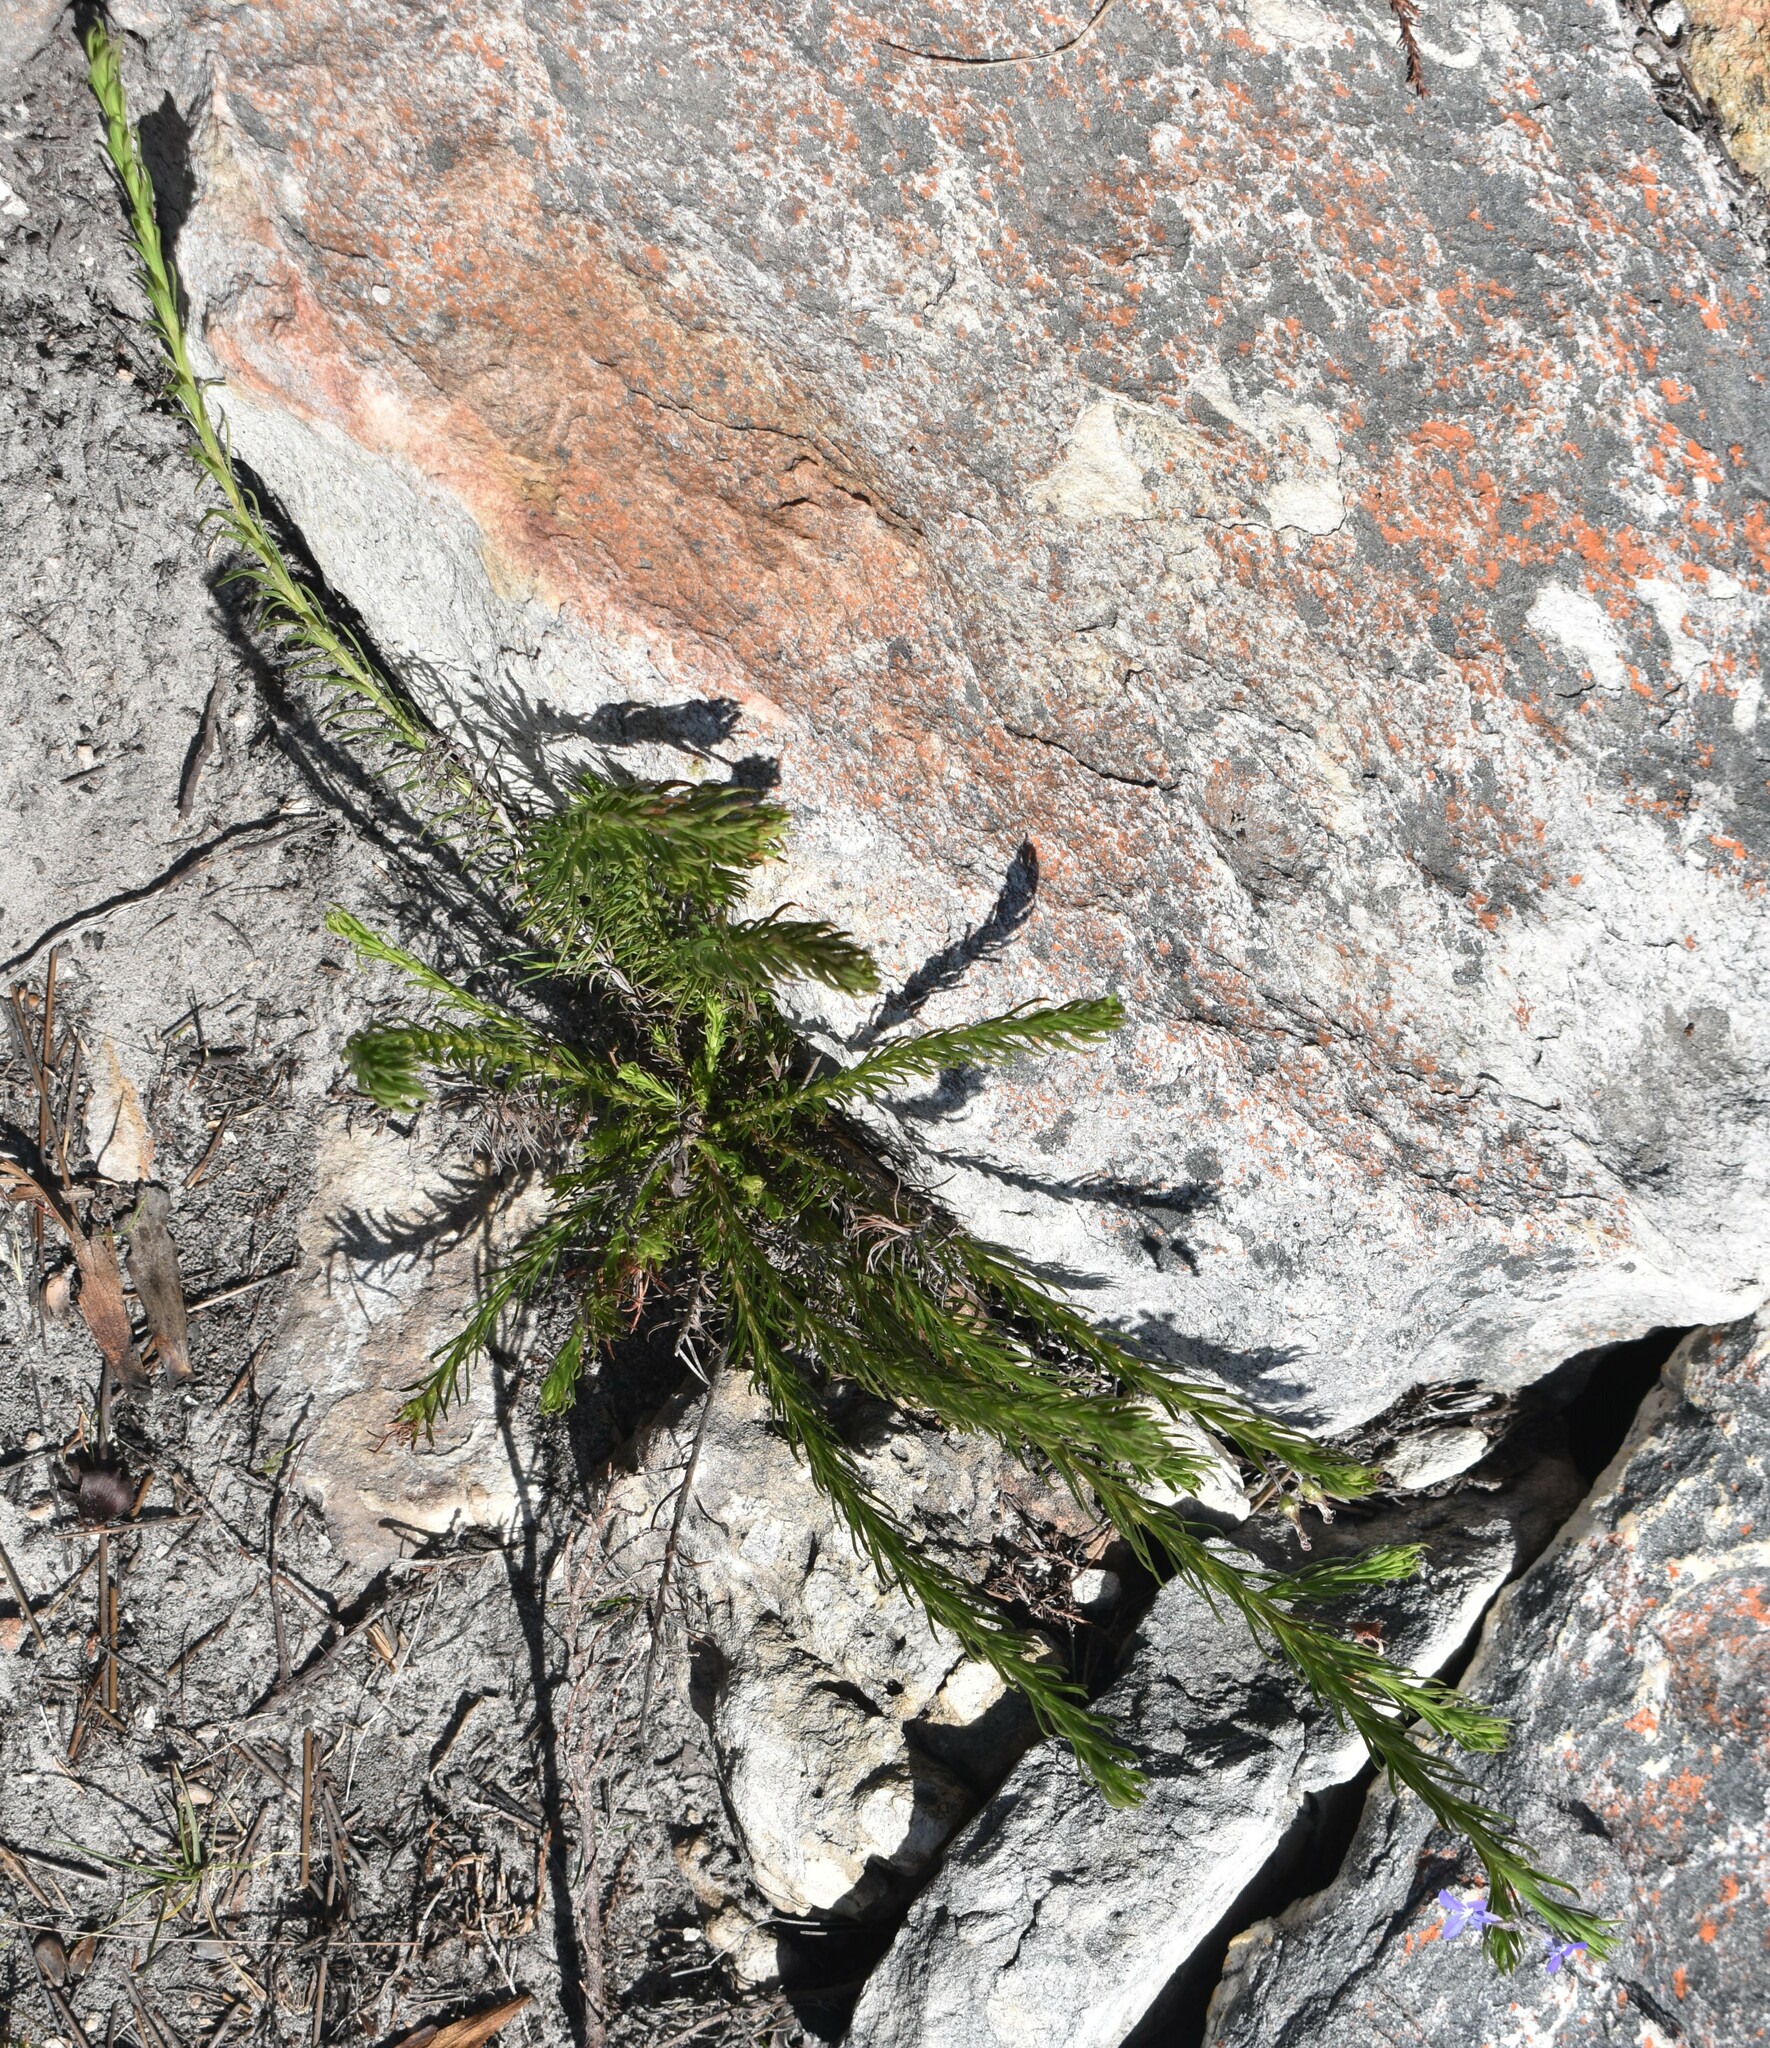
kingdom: Plantae
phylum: Tracheophyta
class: Magnoliopsida
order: Asterales
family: Campanulaceae
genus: Lobelia
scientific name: Lobelia pinifolia
